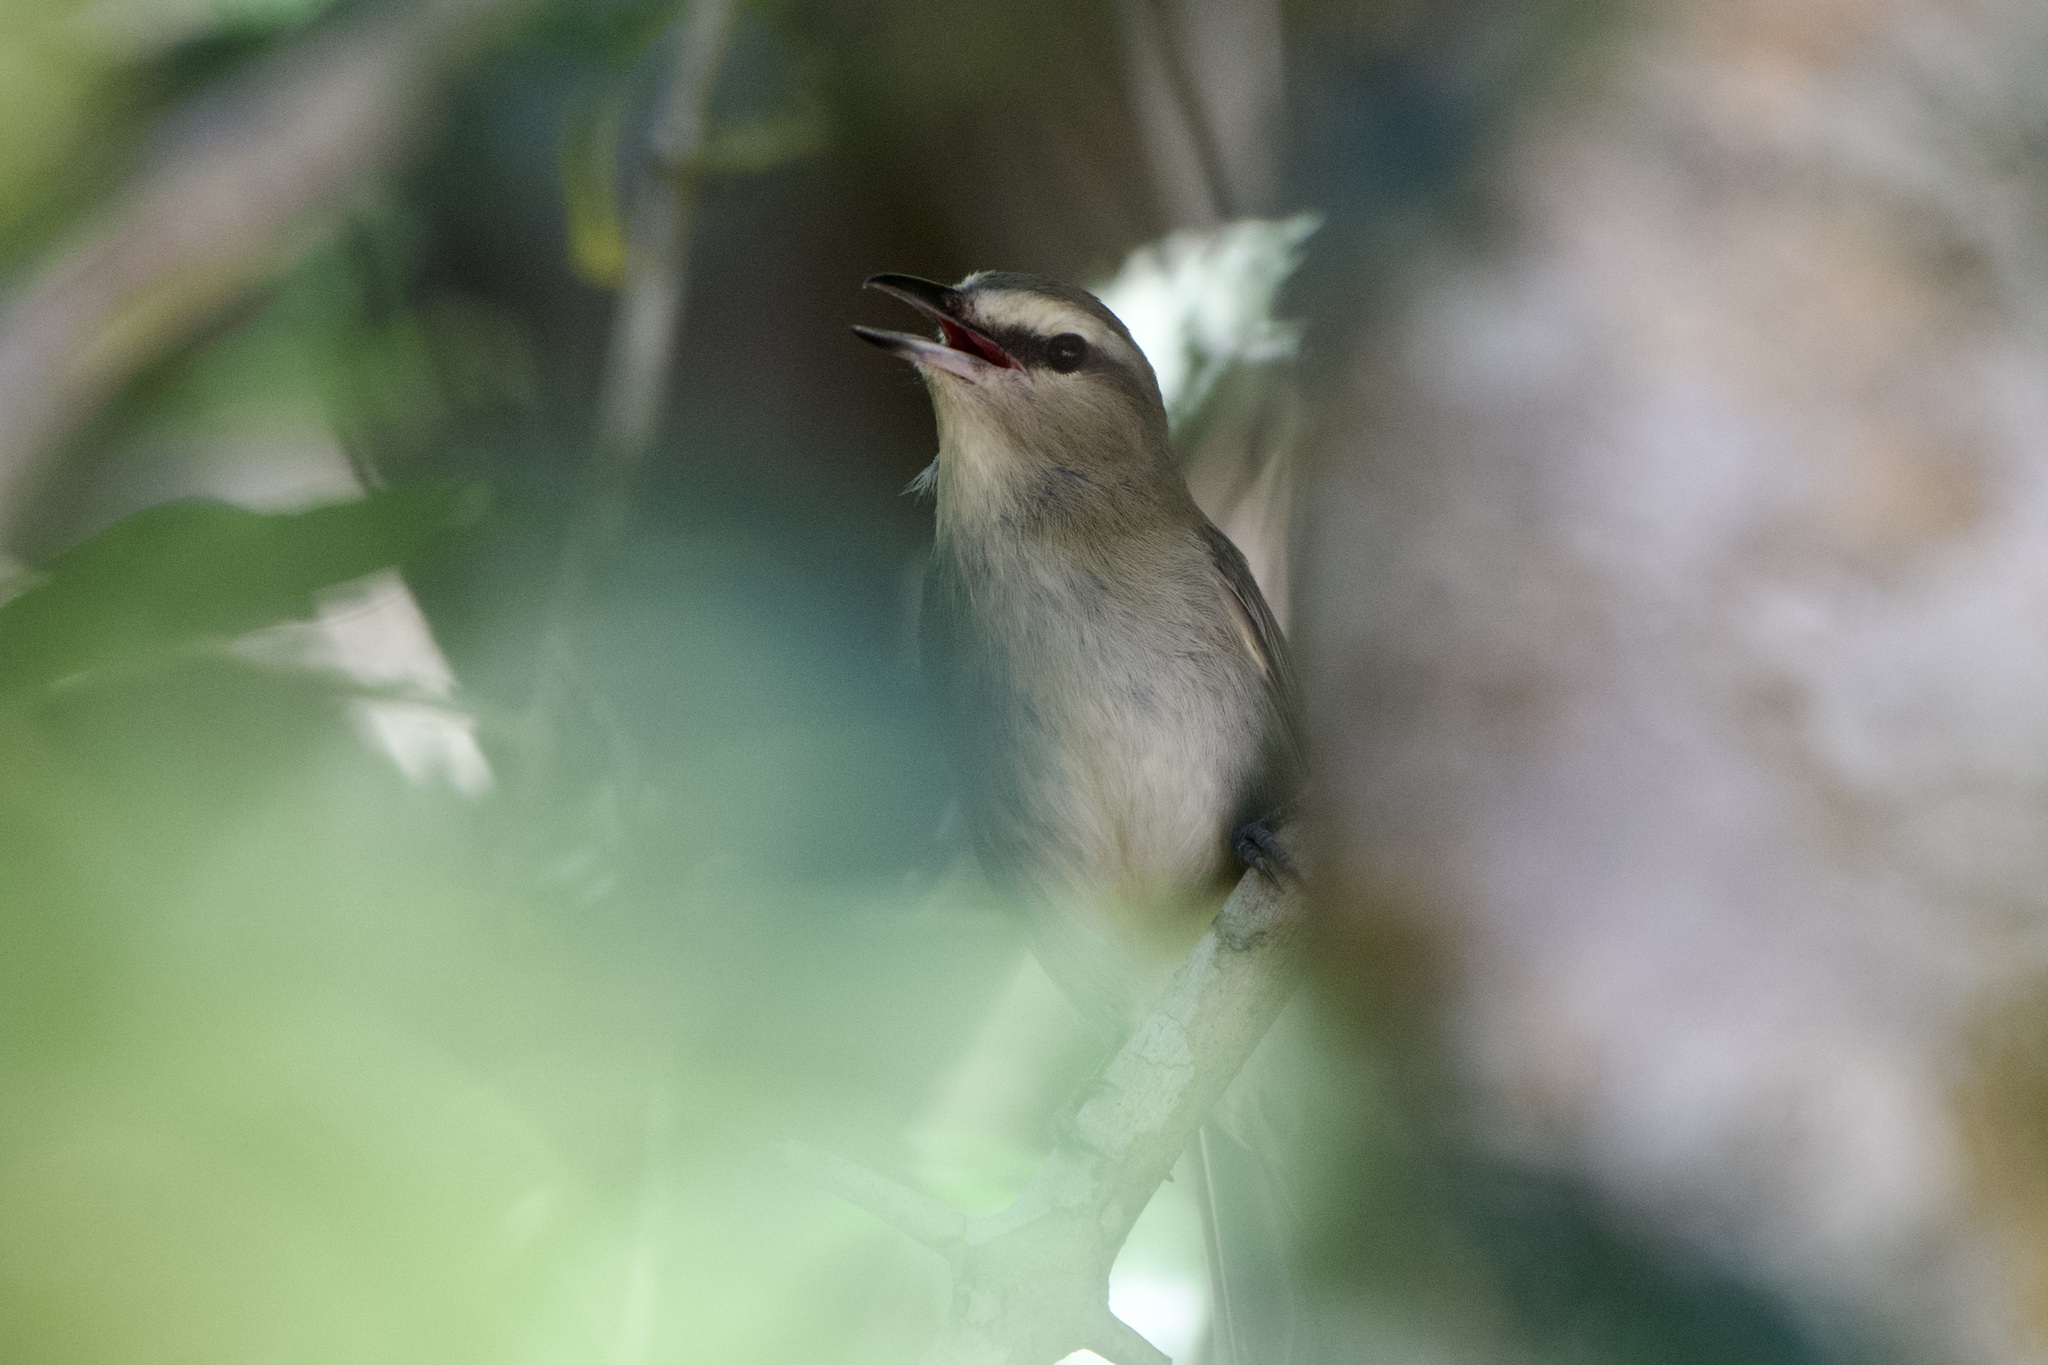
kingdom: Animalia
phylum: Chordata
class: Aves
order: Passeriformes
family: Vireonidae
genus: Vireo
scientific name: Vireo magister
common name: Yucatan vireo
